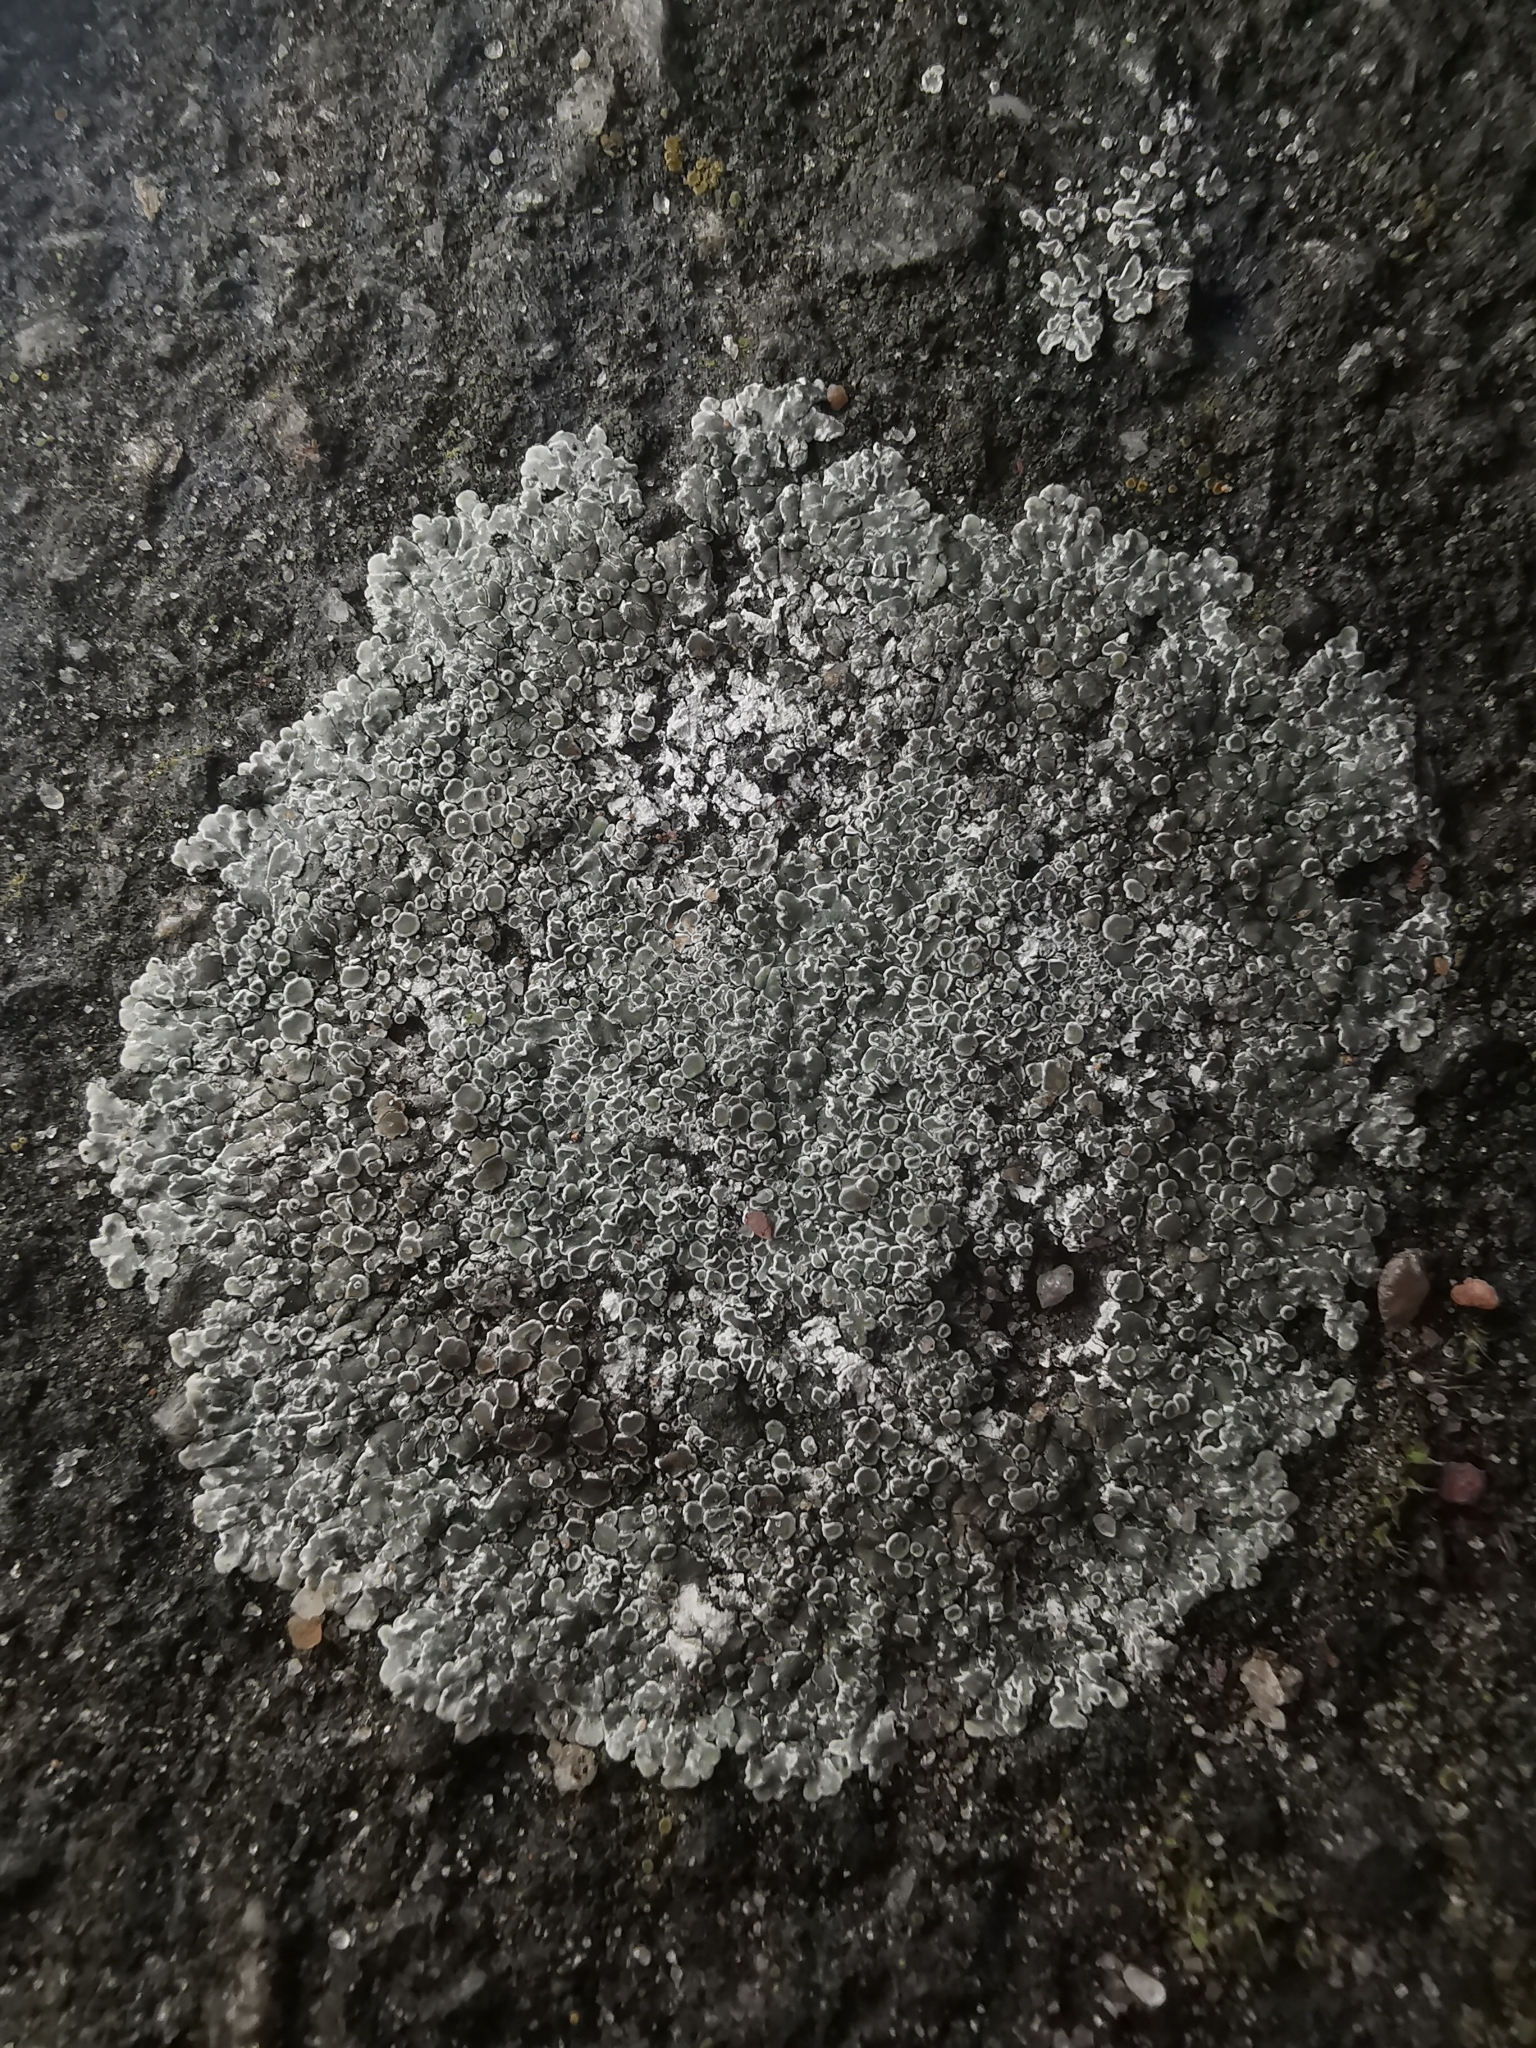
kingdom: Fungi
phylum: Ascomycota
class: Lecanoromycetes
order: Lecanorales
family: Lecanoraceae
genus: Protoparmeliopsis
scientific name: Protoparmeliopsis muralis
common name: Stonewall rim lichen
